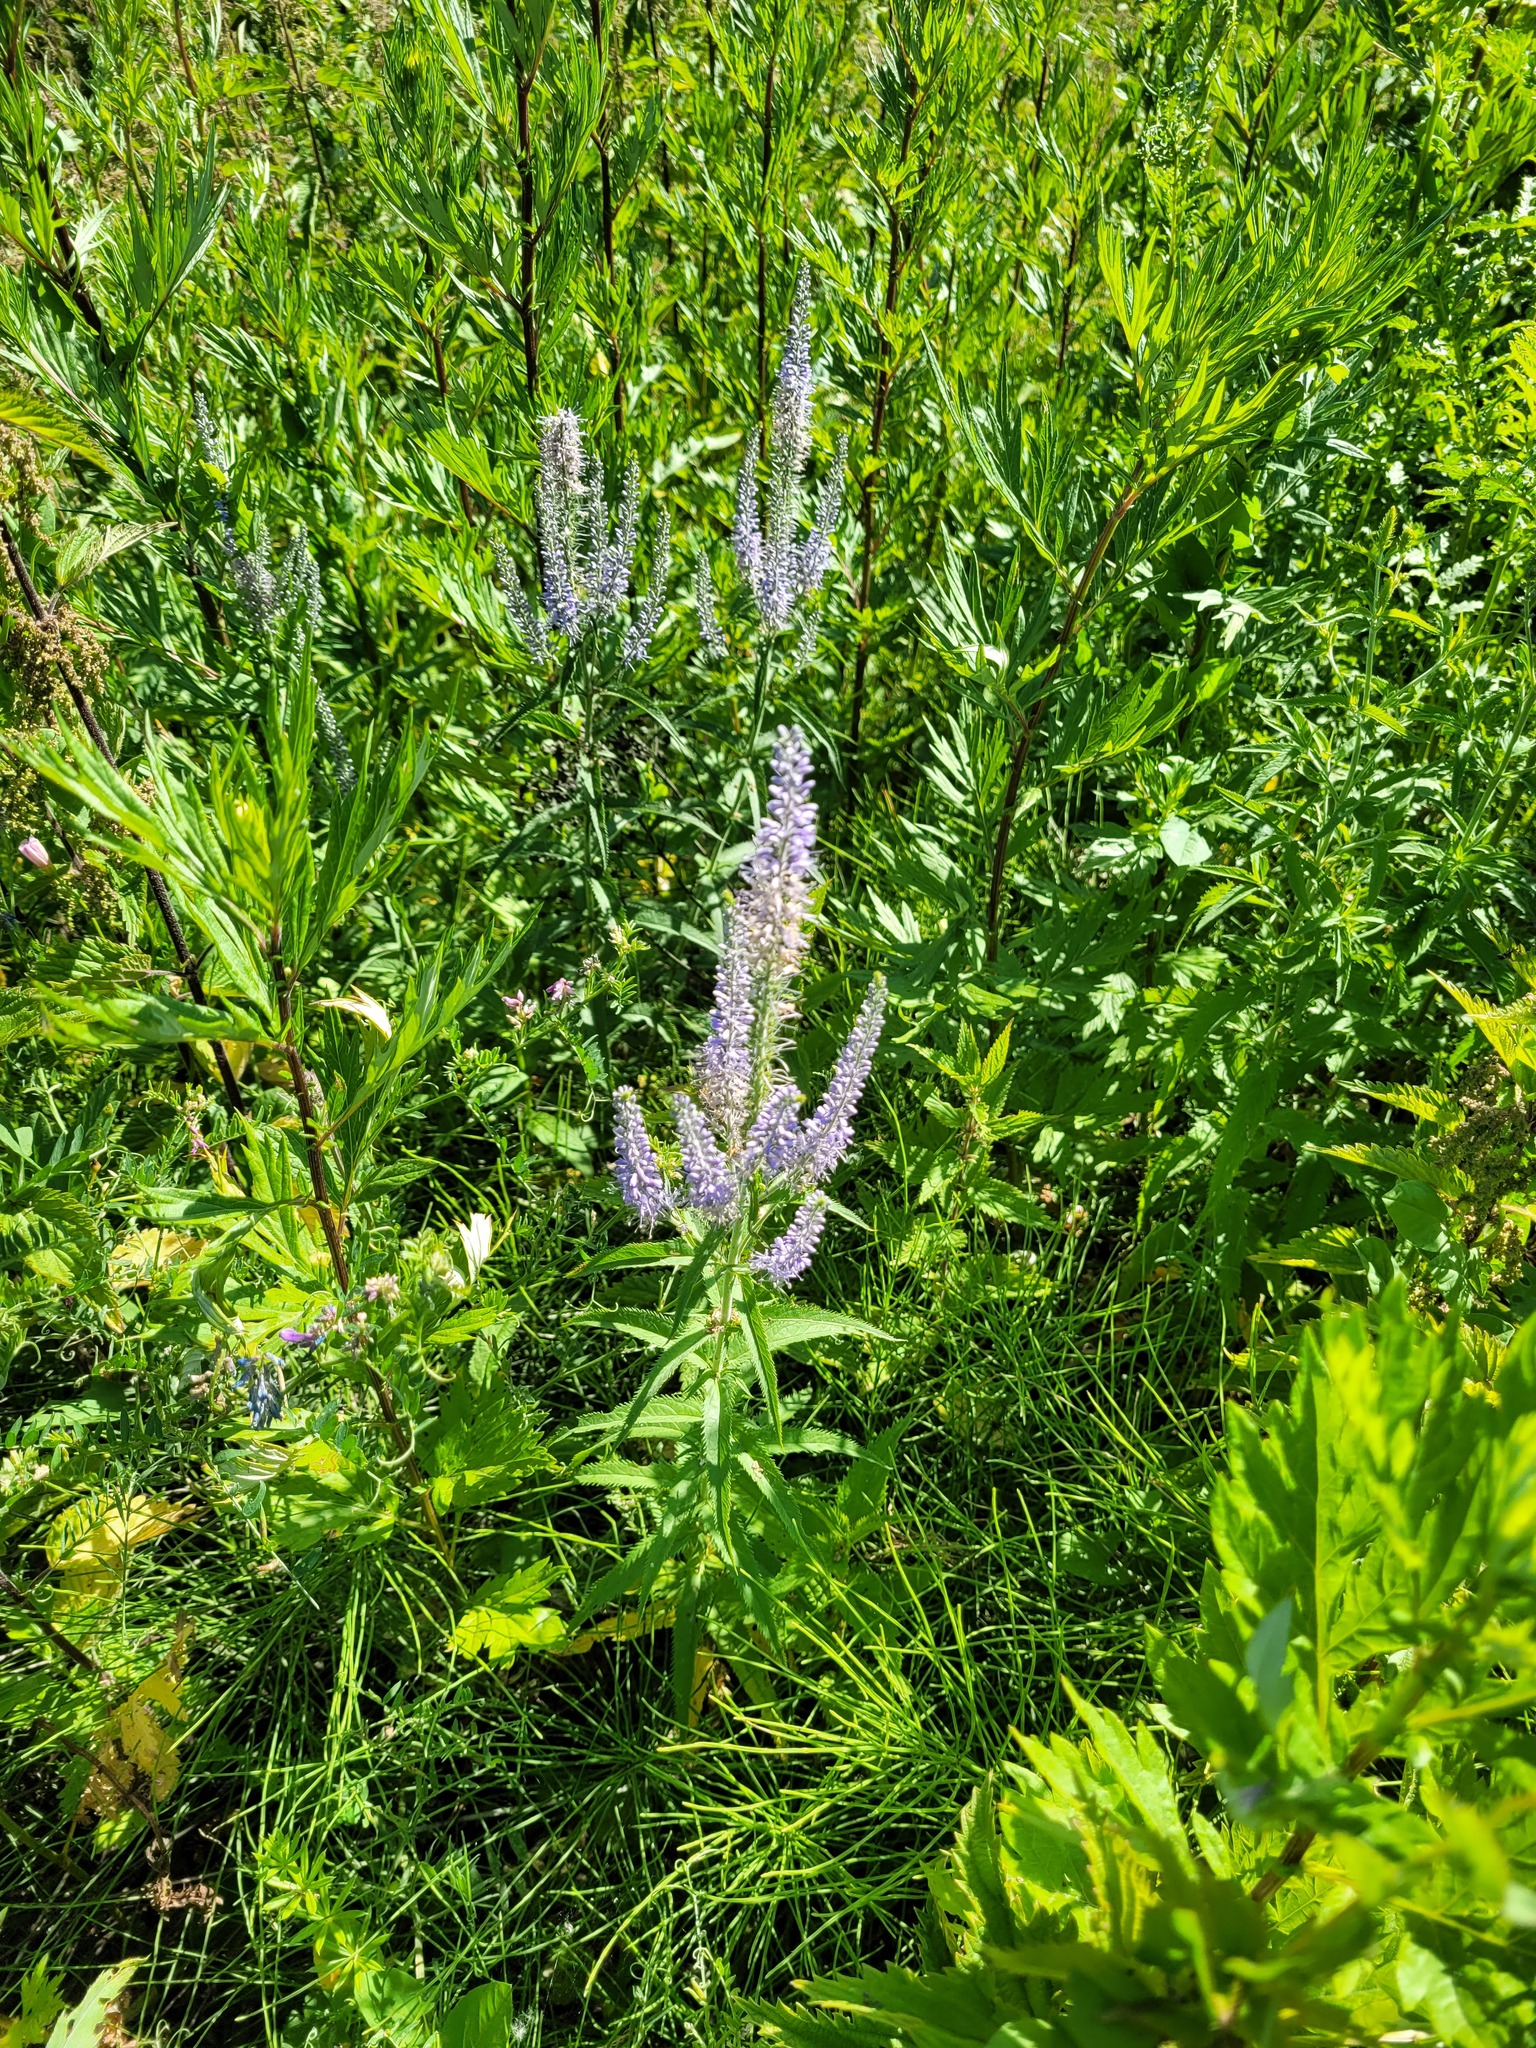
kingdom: Plantae
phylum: Tracheophyta
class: Magnoliopsida
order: Lamiales
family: Plantaginaceae
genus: Veronica
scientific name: Veronica longifolia
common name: Garden speedwell
